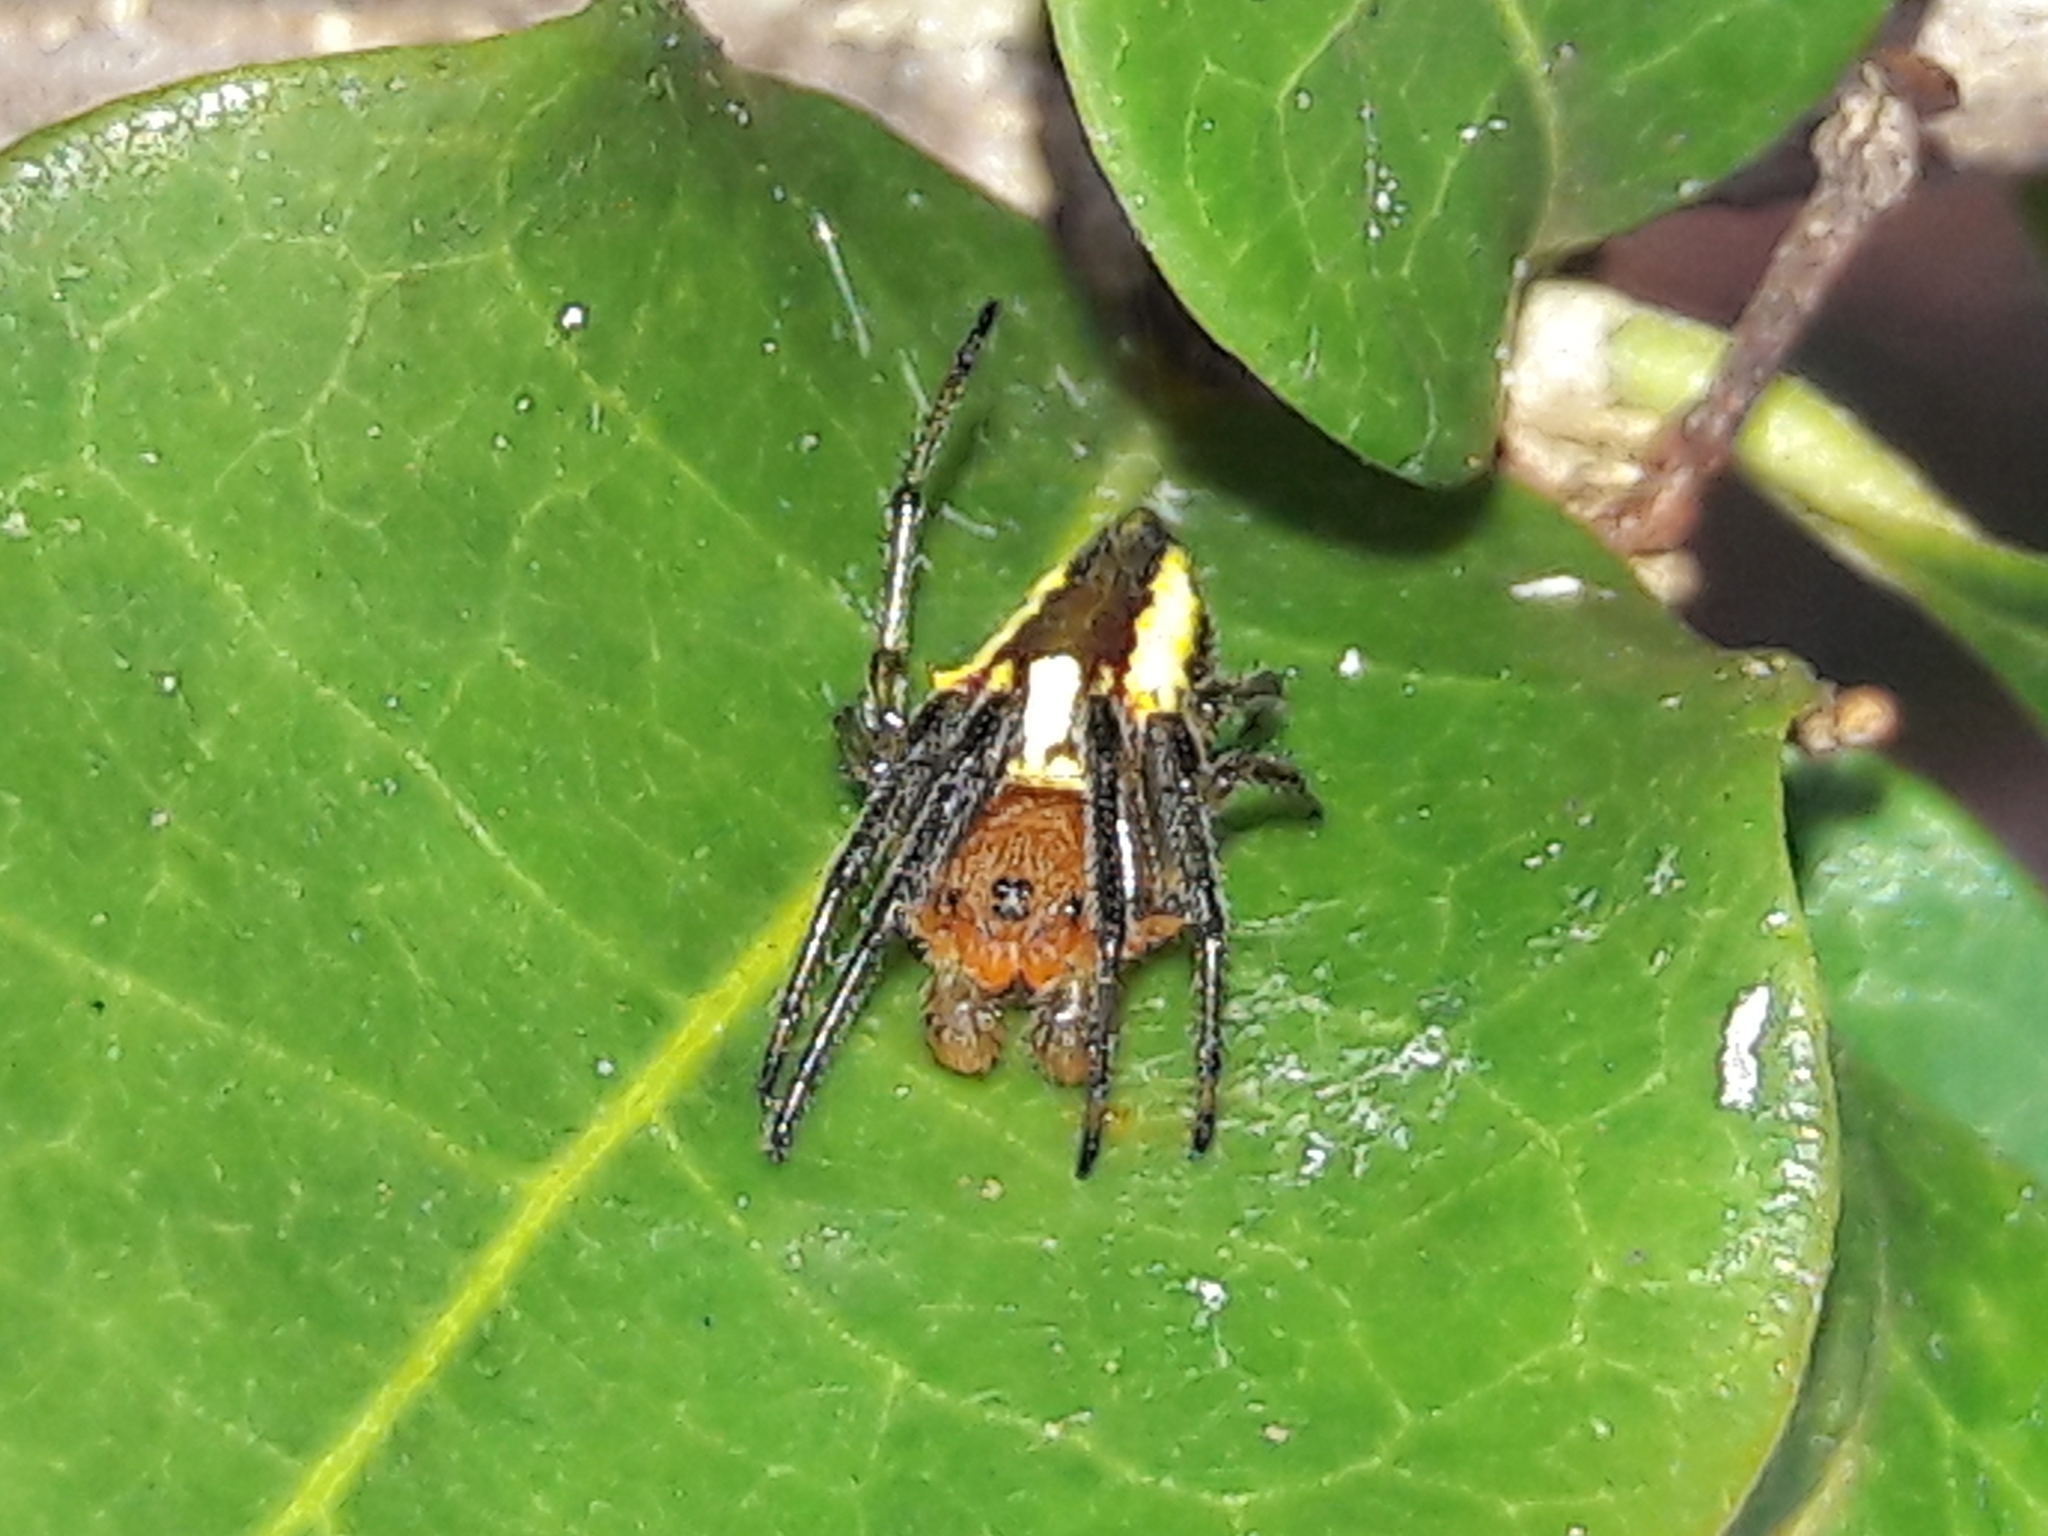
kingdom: Animalia
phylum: Arthropoda
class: Arachnida
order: Araneae
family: Araneidae
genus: Alpaida
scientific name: Alpaida bicornuta
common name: Orb weavers
